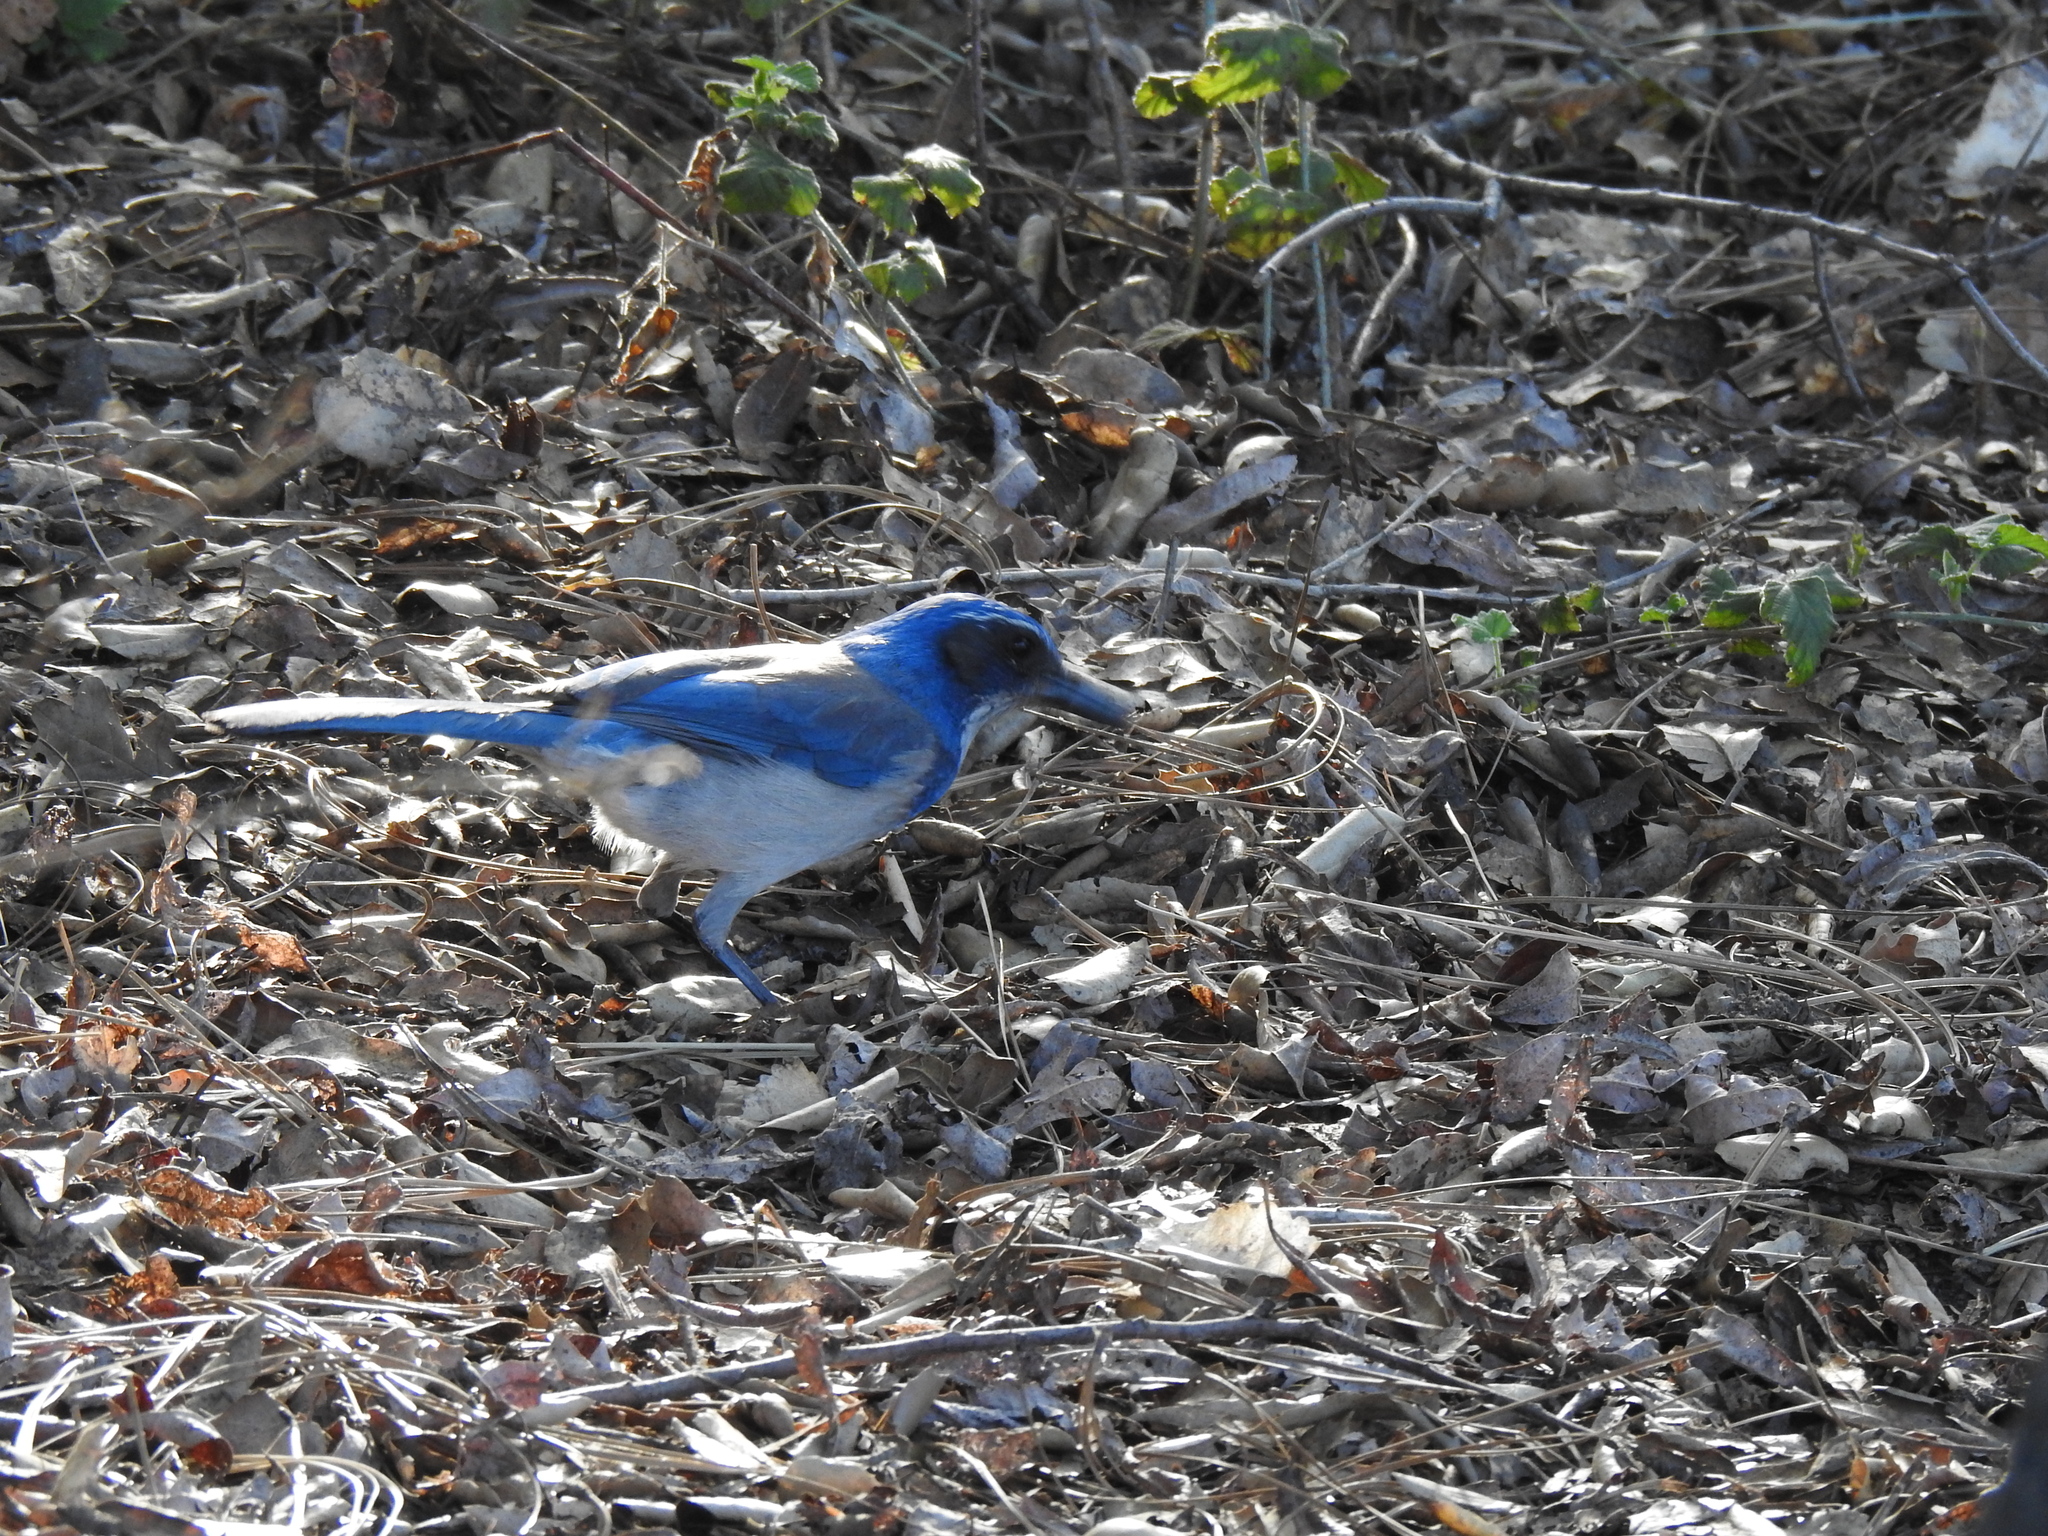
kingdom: Animalia
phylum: Chordata
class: Aves
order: Passeriformes
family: Corvidae
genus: Aphelocoma
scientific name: Aphelocoma californica
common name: California scrub-jay
